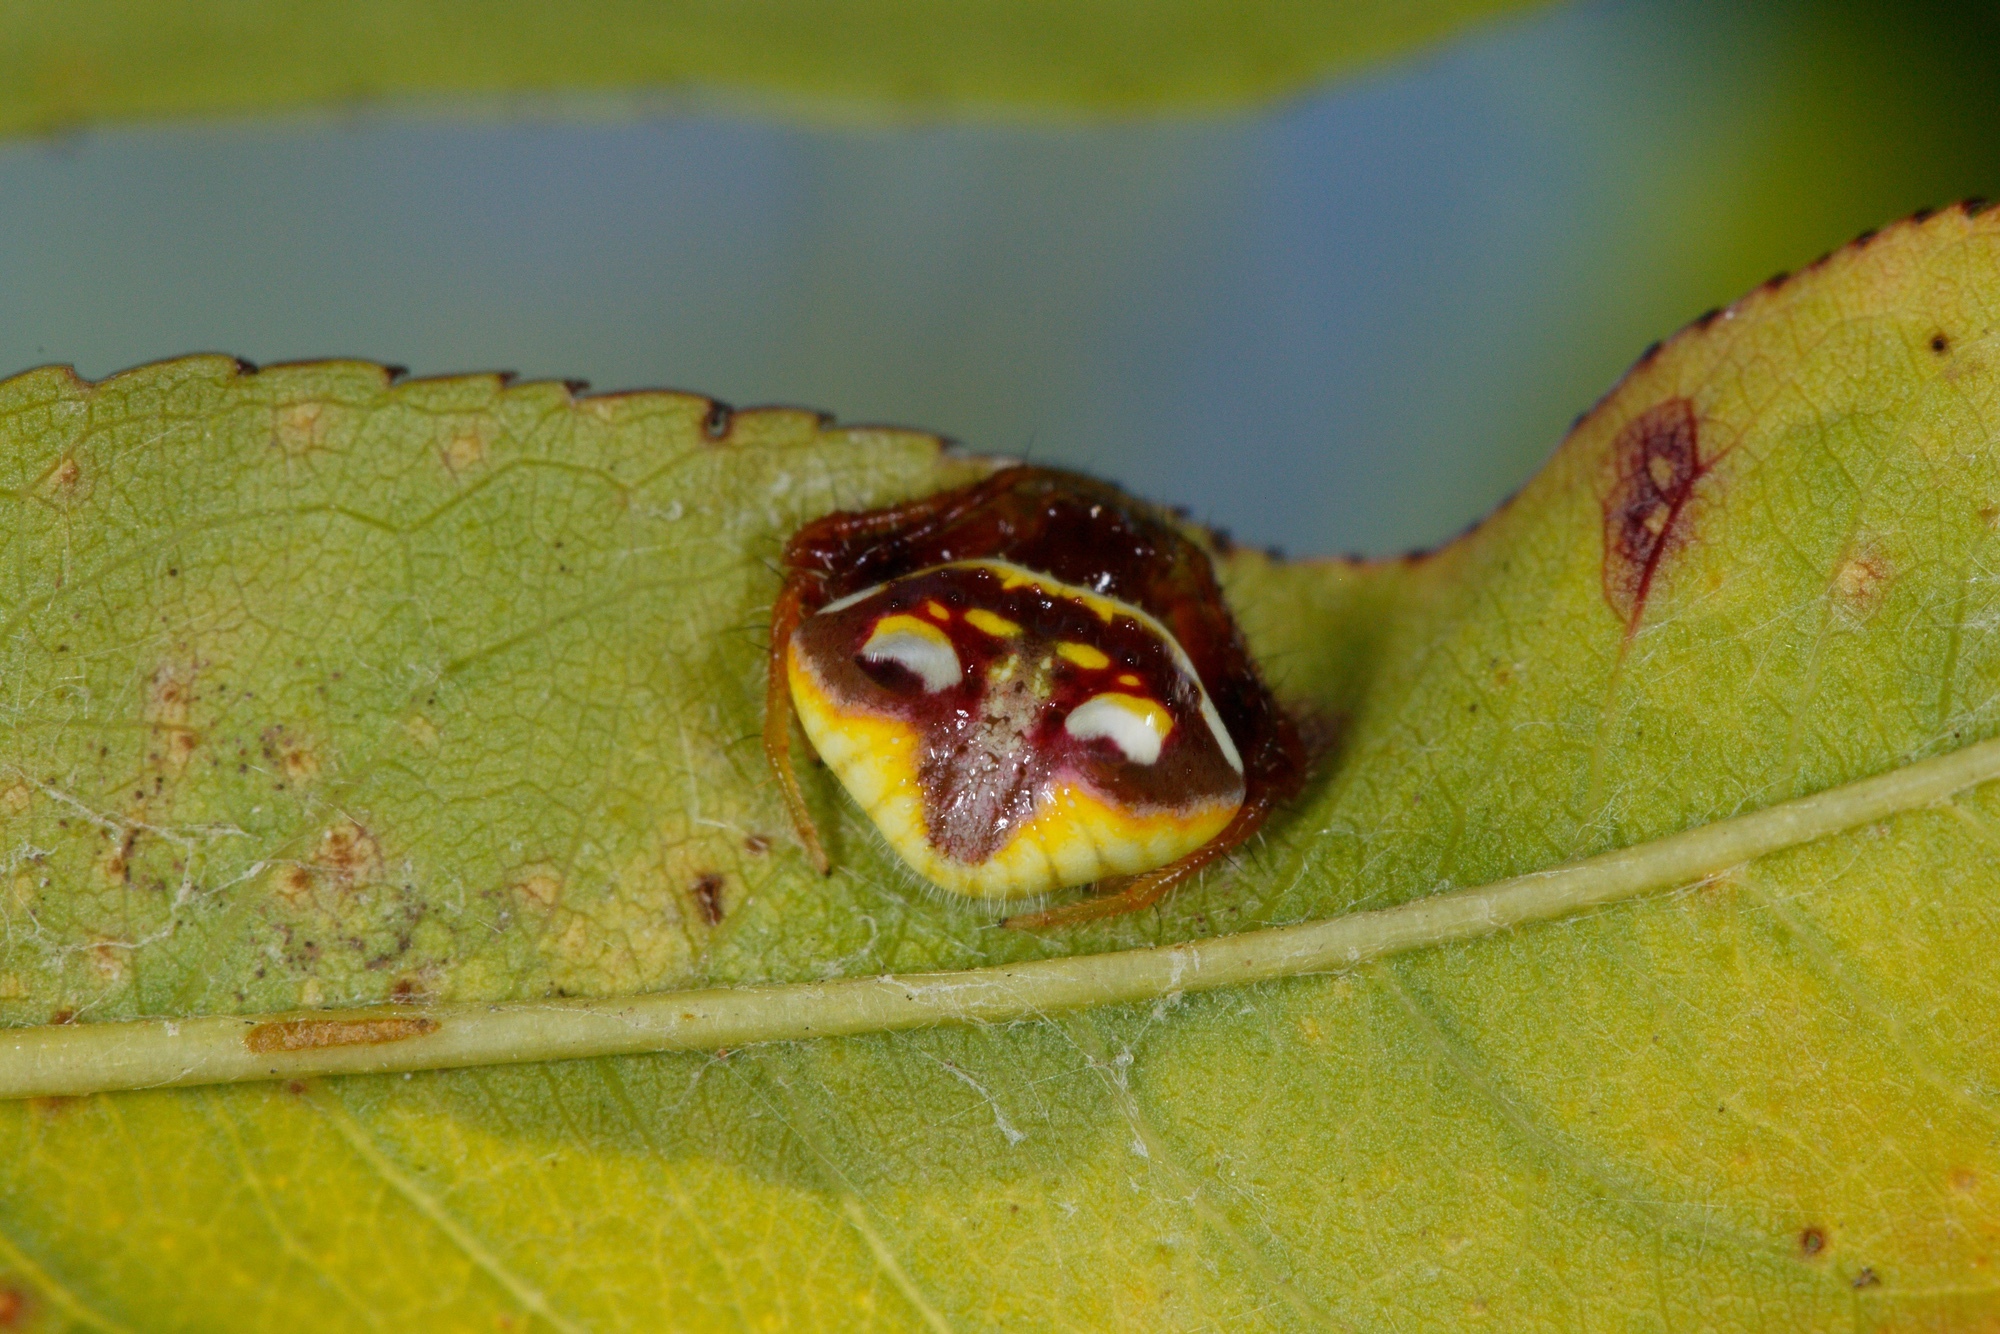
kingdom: Animalia
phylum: Arthropoda
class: Arachnida
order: Araneae
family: Araneidae
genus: Poecilopachys
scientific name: Poecilopachys australasia
